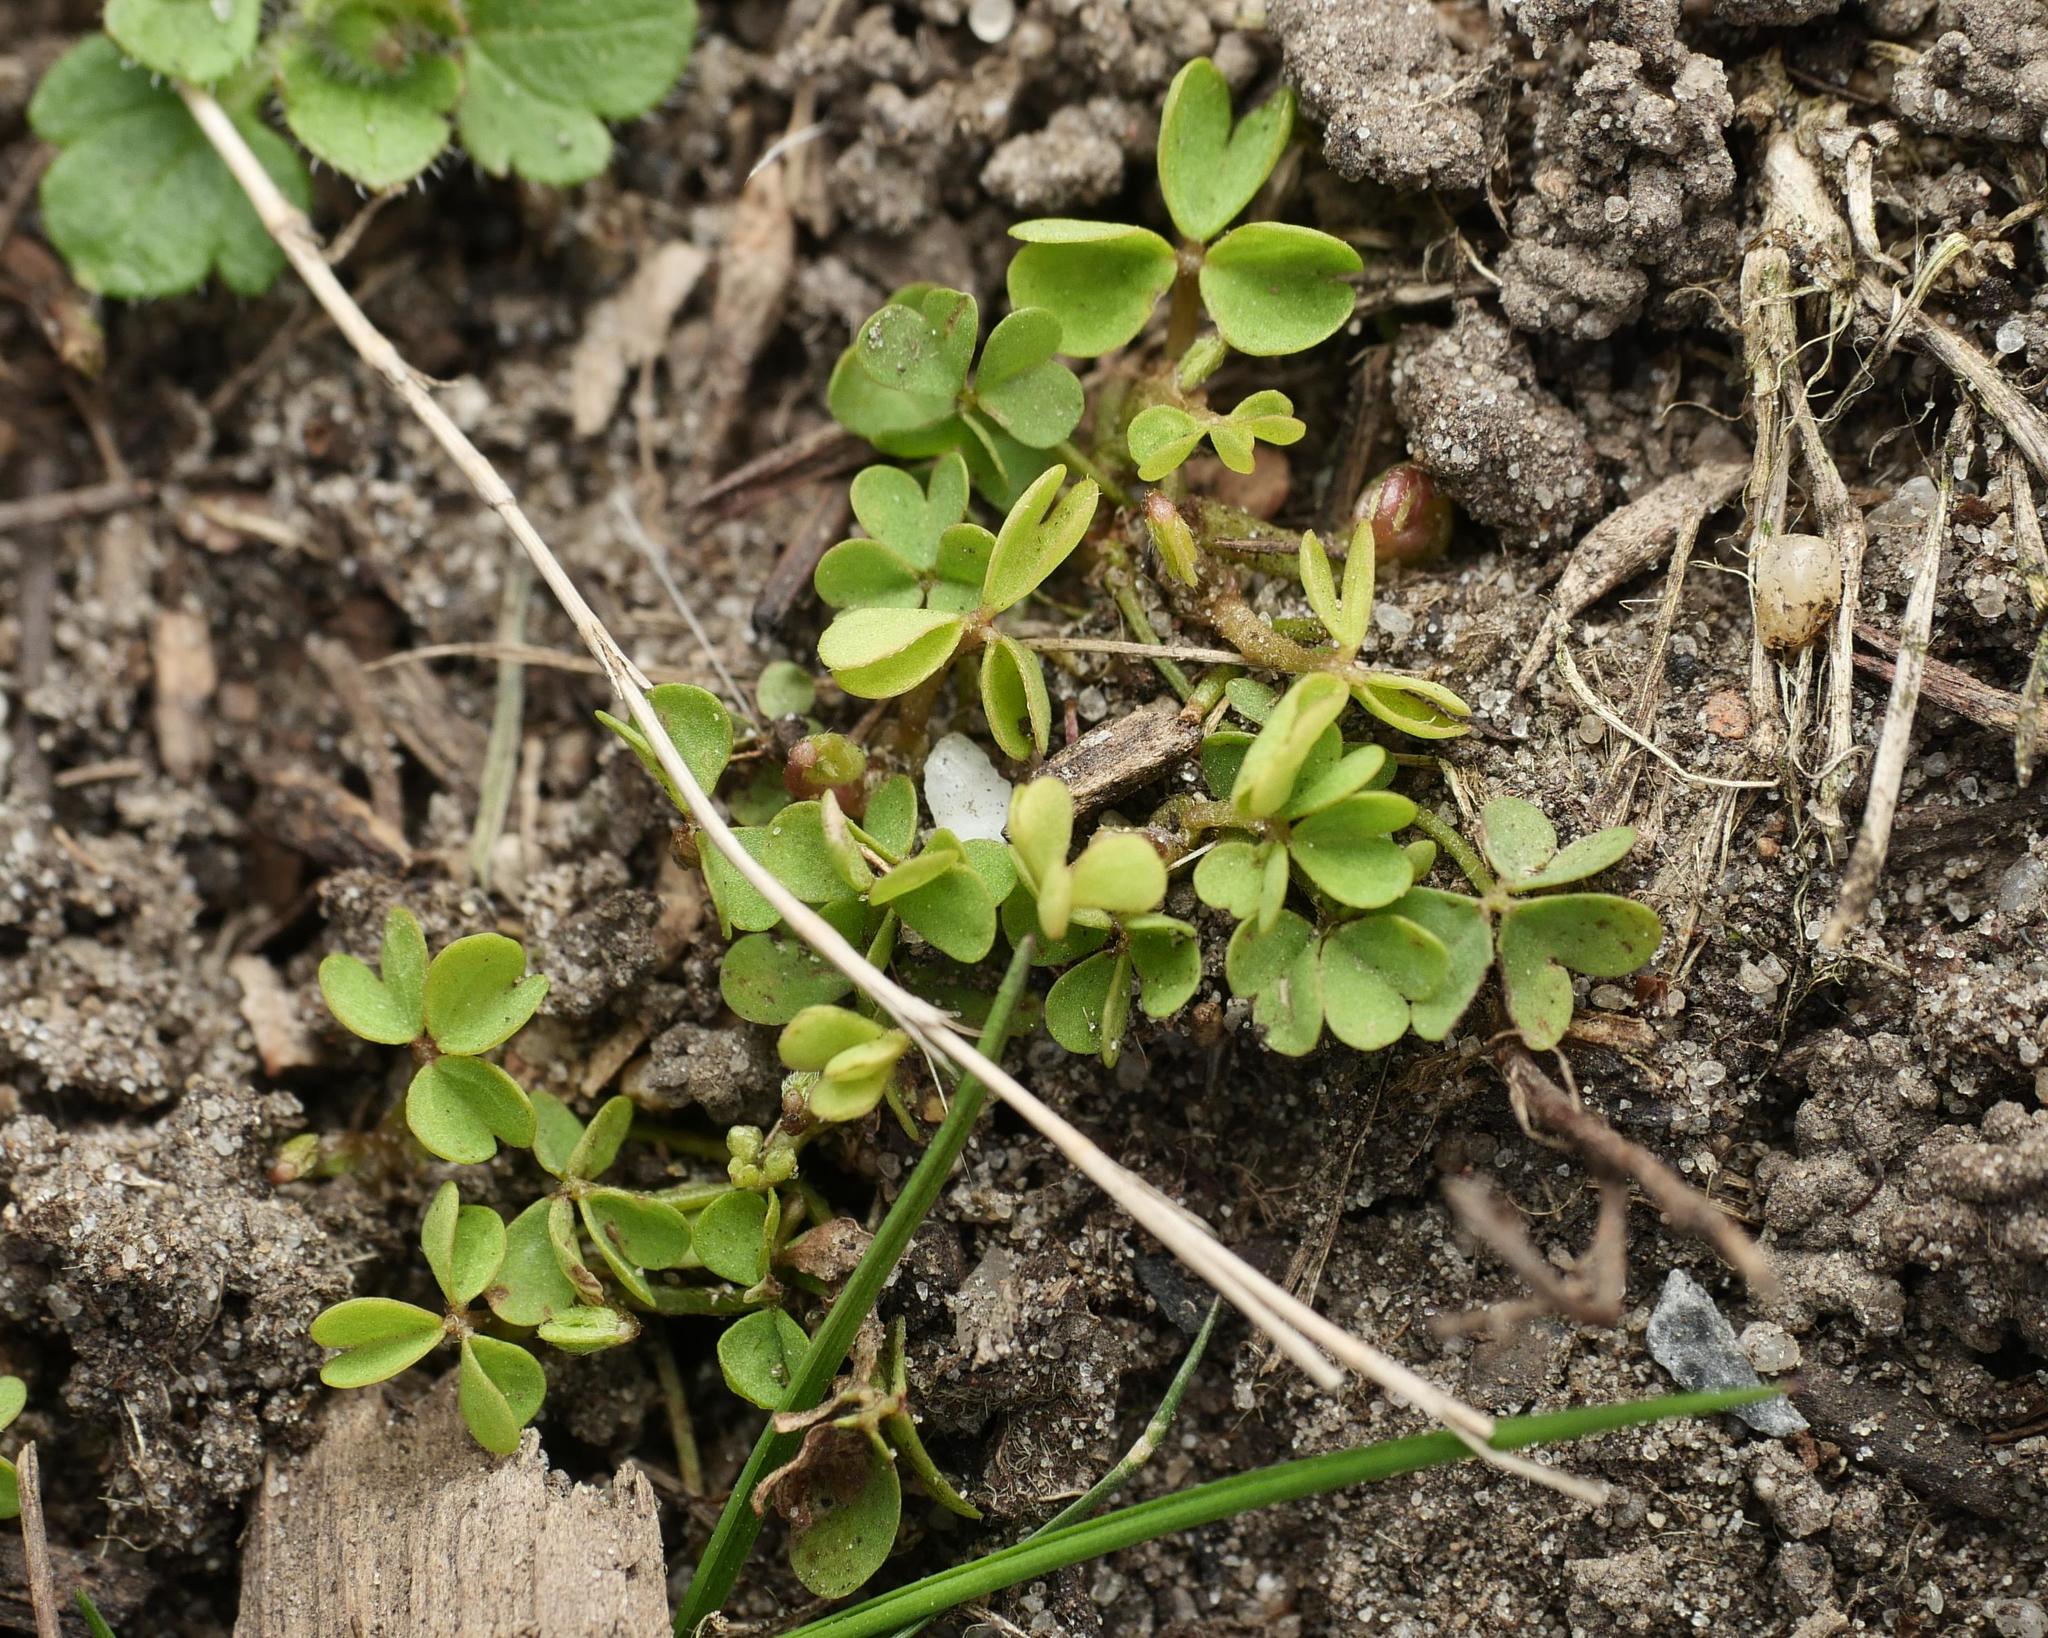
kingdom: Plantae
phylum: Tracheophyta
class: Magnoliopsida
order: Oxalidales
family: Oxalidaceae
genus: Oxalis
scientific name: Oxalis corniculata
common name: Procumbent yellow-sorrel
